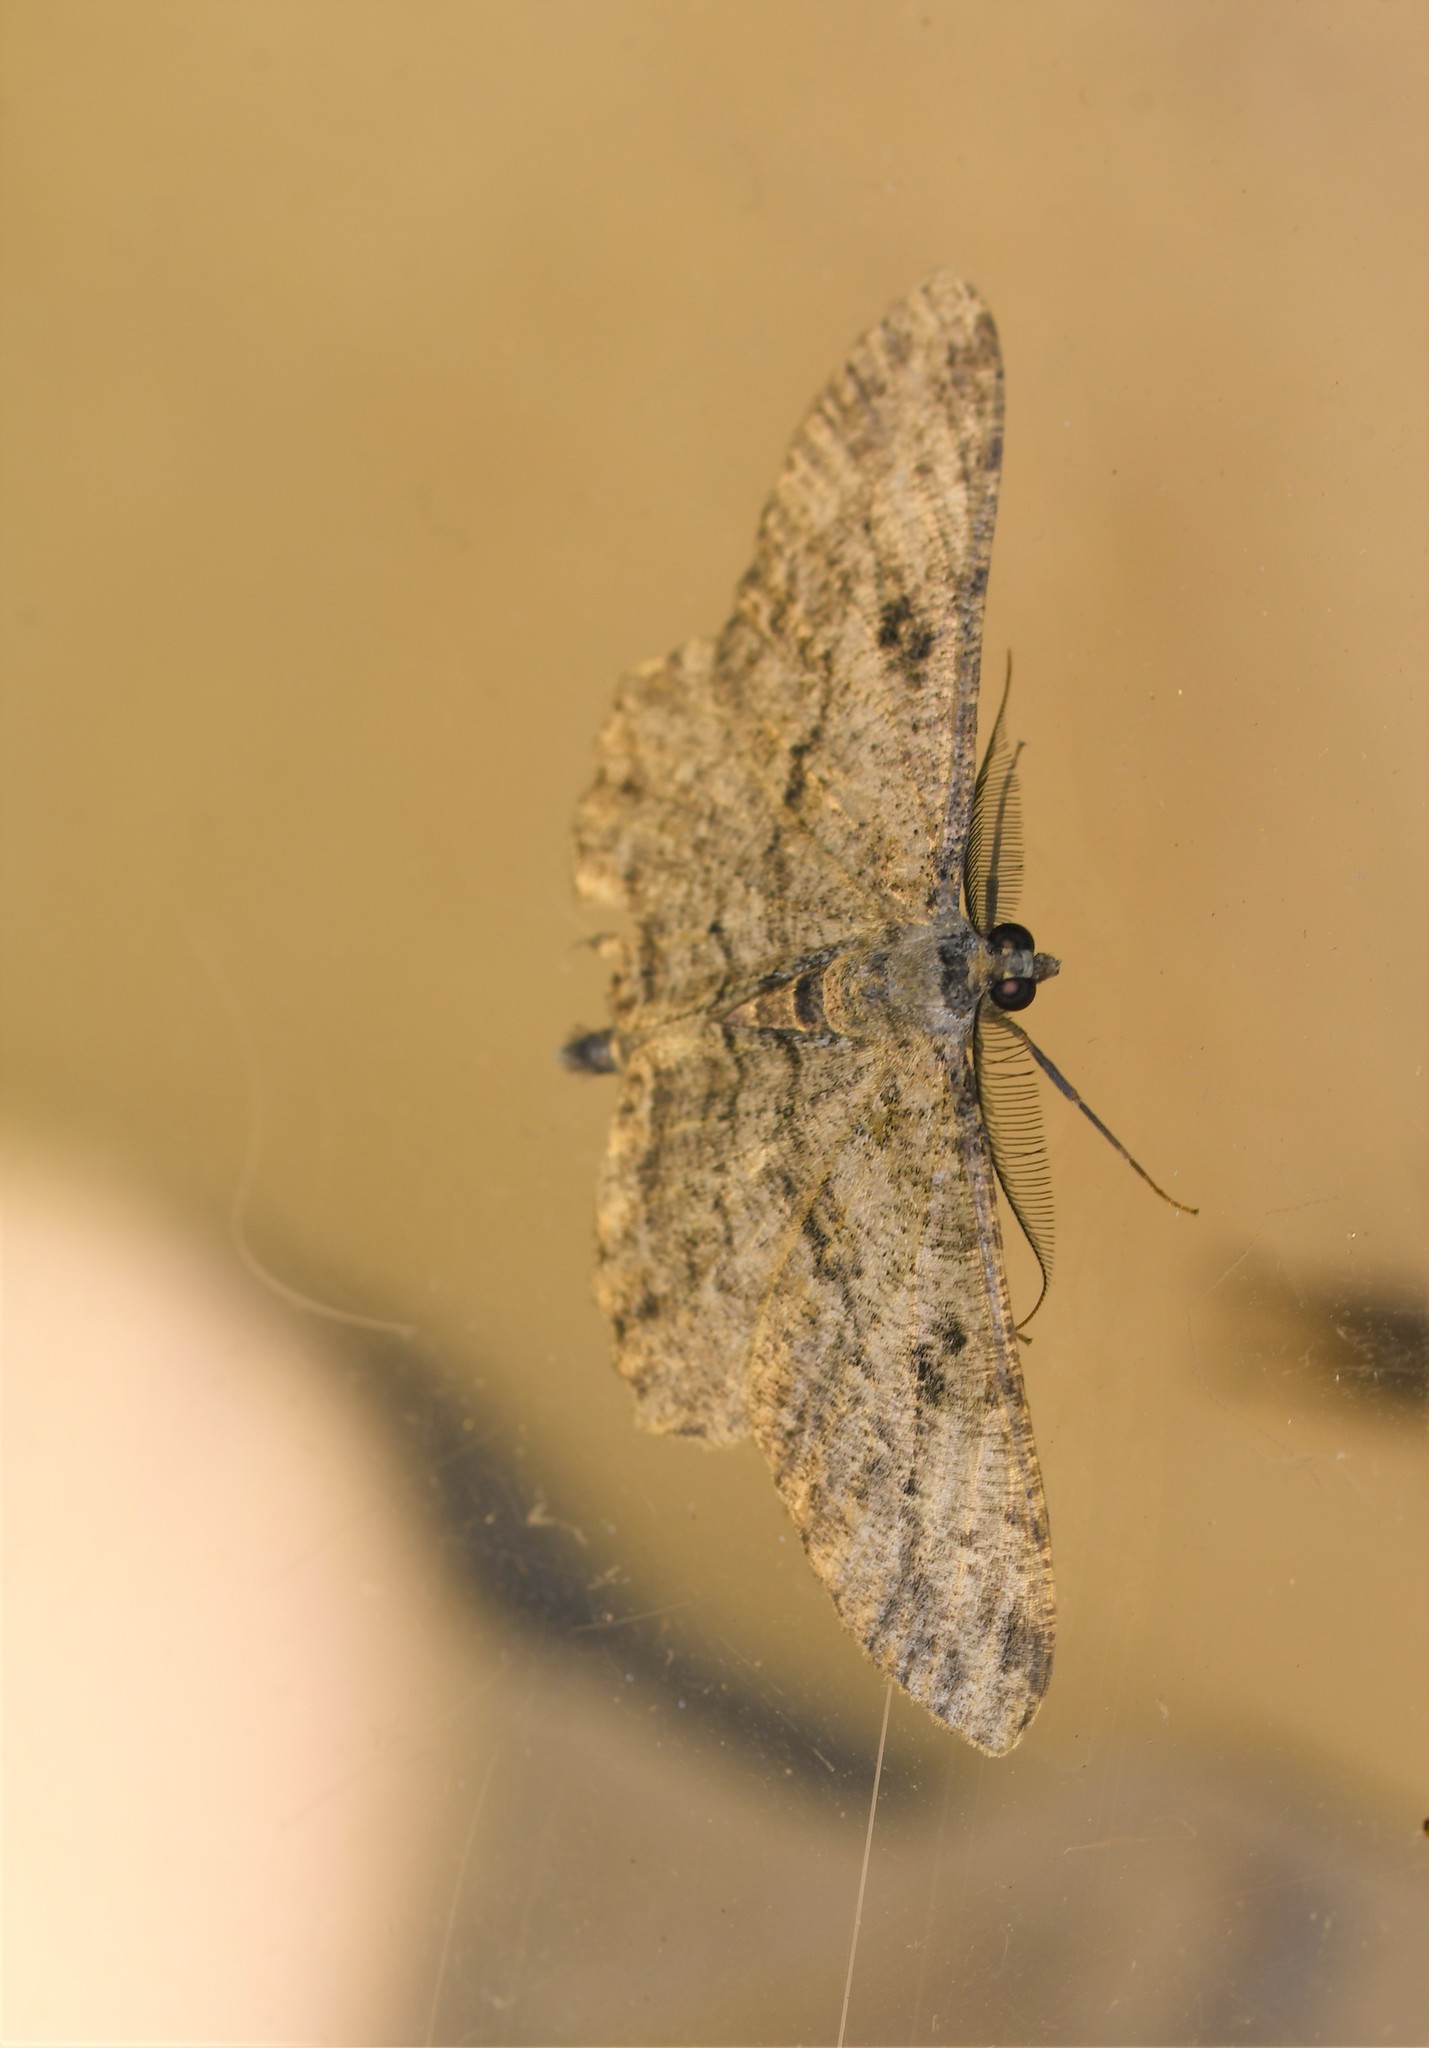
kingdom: Animalia
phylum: Arthropoda
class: Insecta
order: Lepidoptera
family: Geometridae
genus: Peribatodes
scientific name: Peribatodes rhomboidaria
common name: Willow beauty
